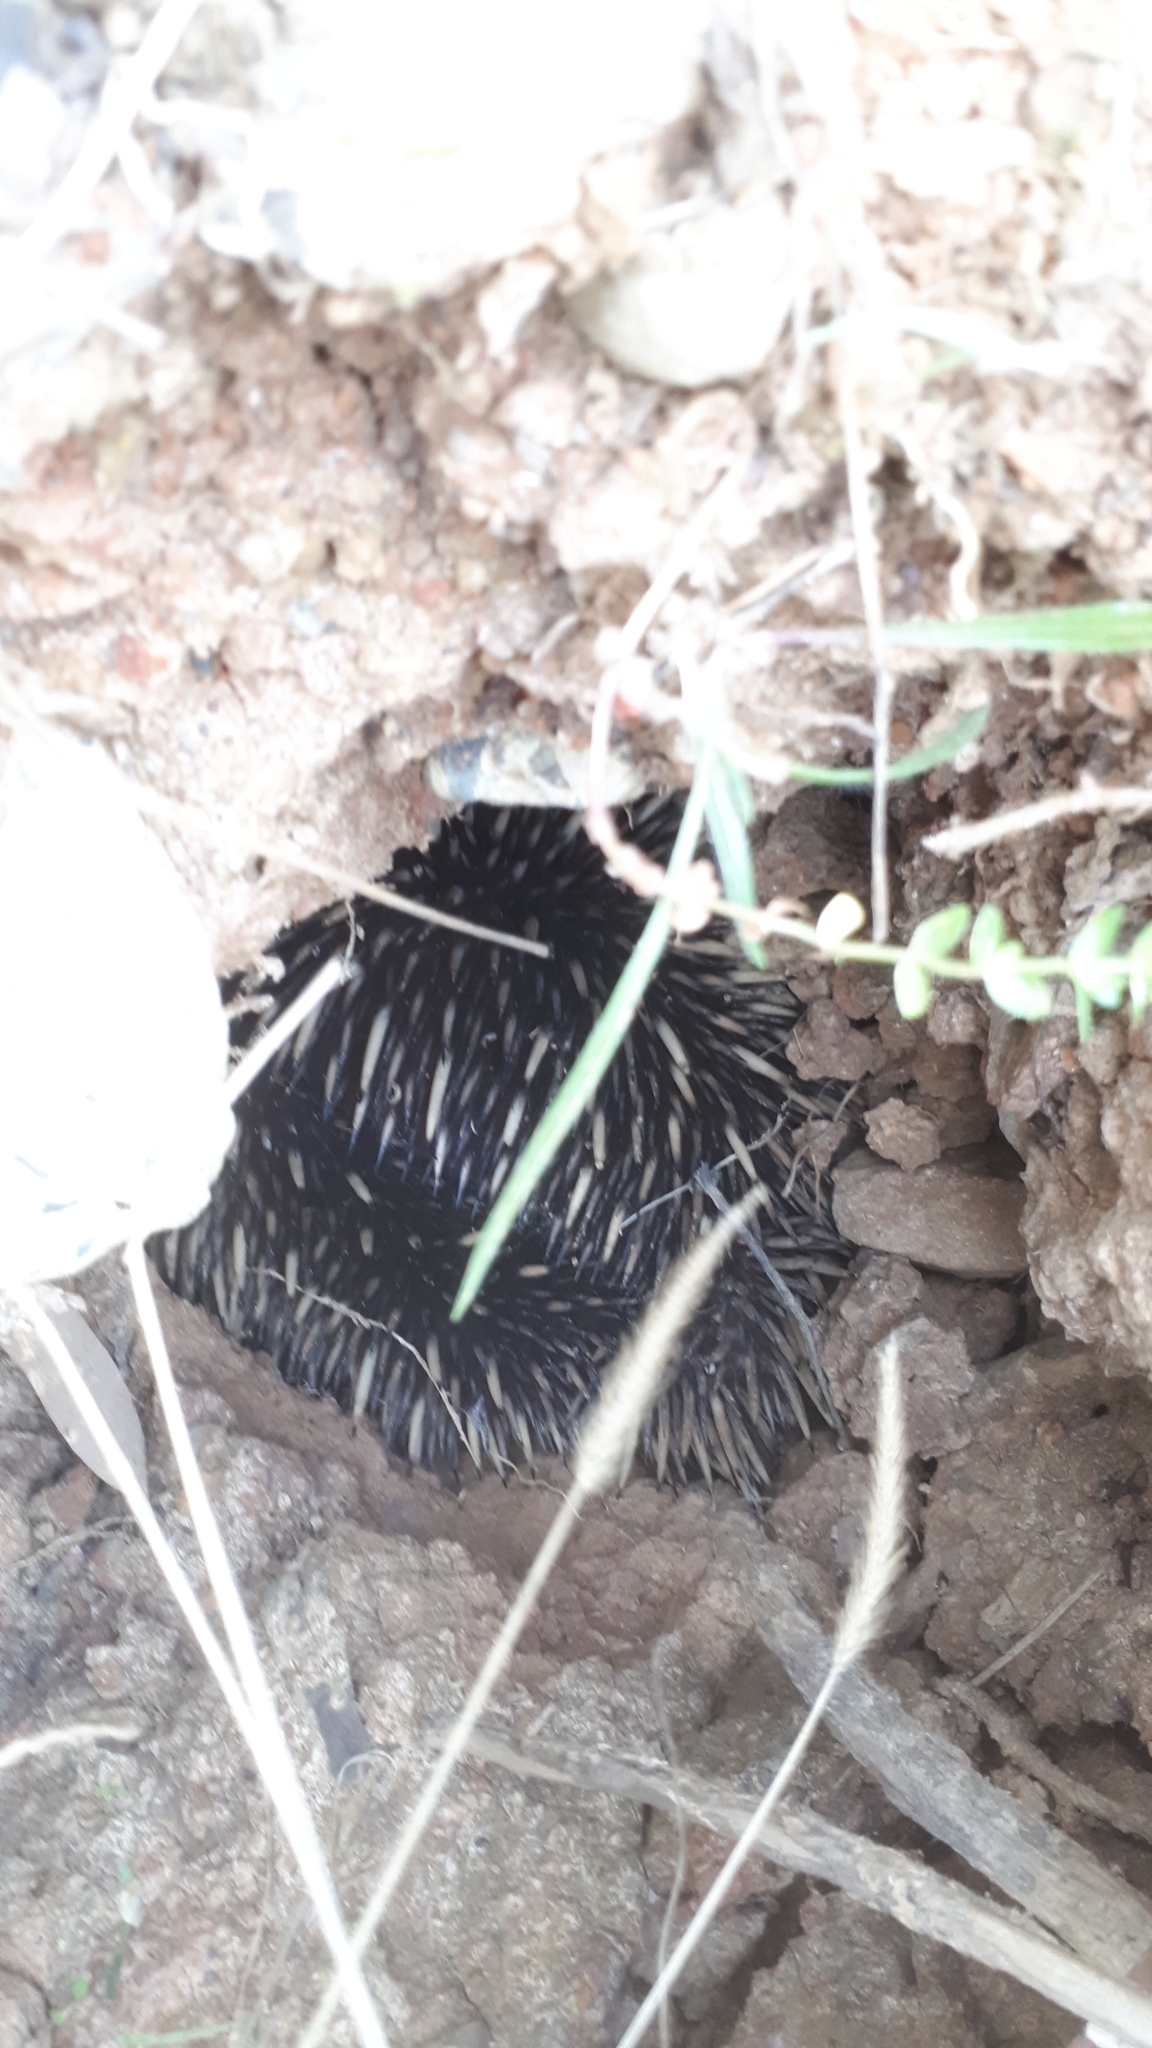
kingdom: Animalia
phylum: Chordata
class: Mammalia
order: Monotremata
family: Tachyglossidae
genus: Tachyglossus
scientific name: Tachyglossus aculeatus
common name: Short-beaked echidna
